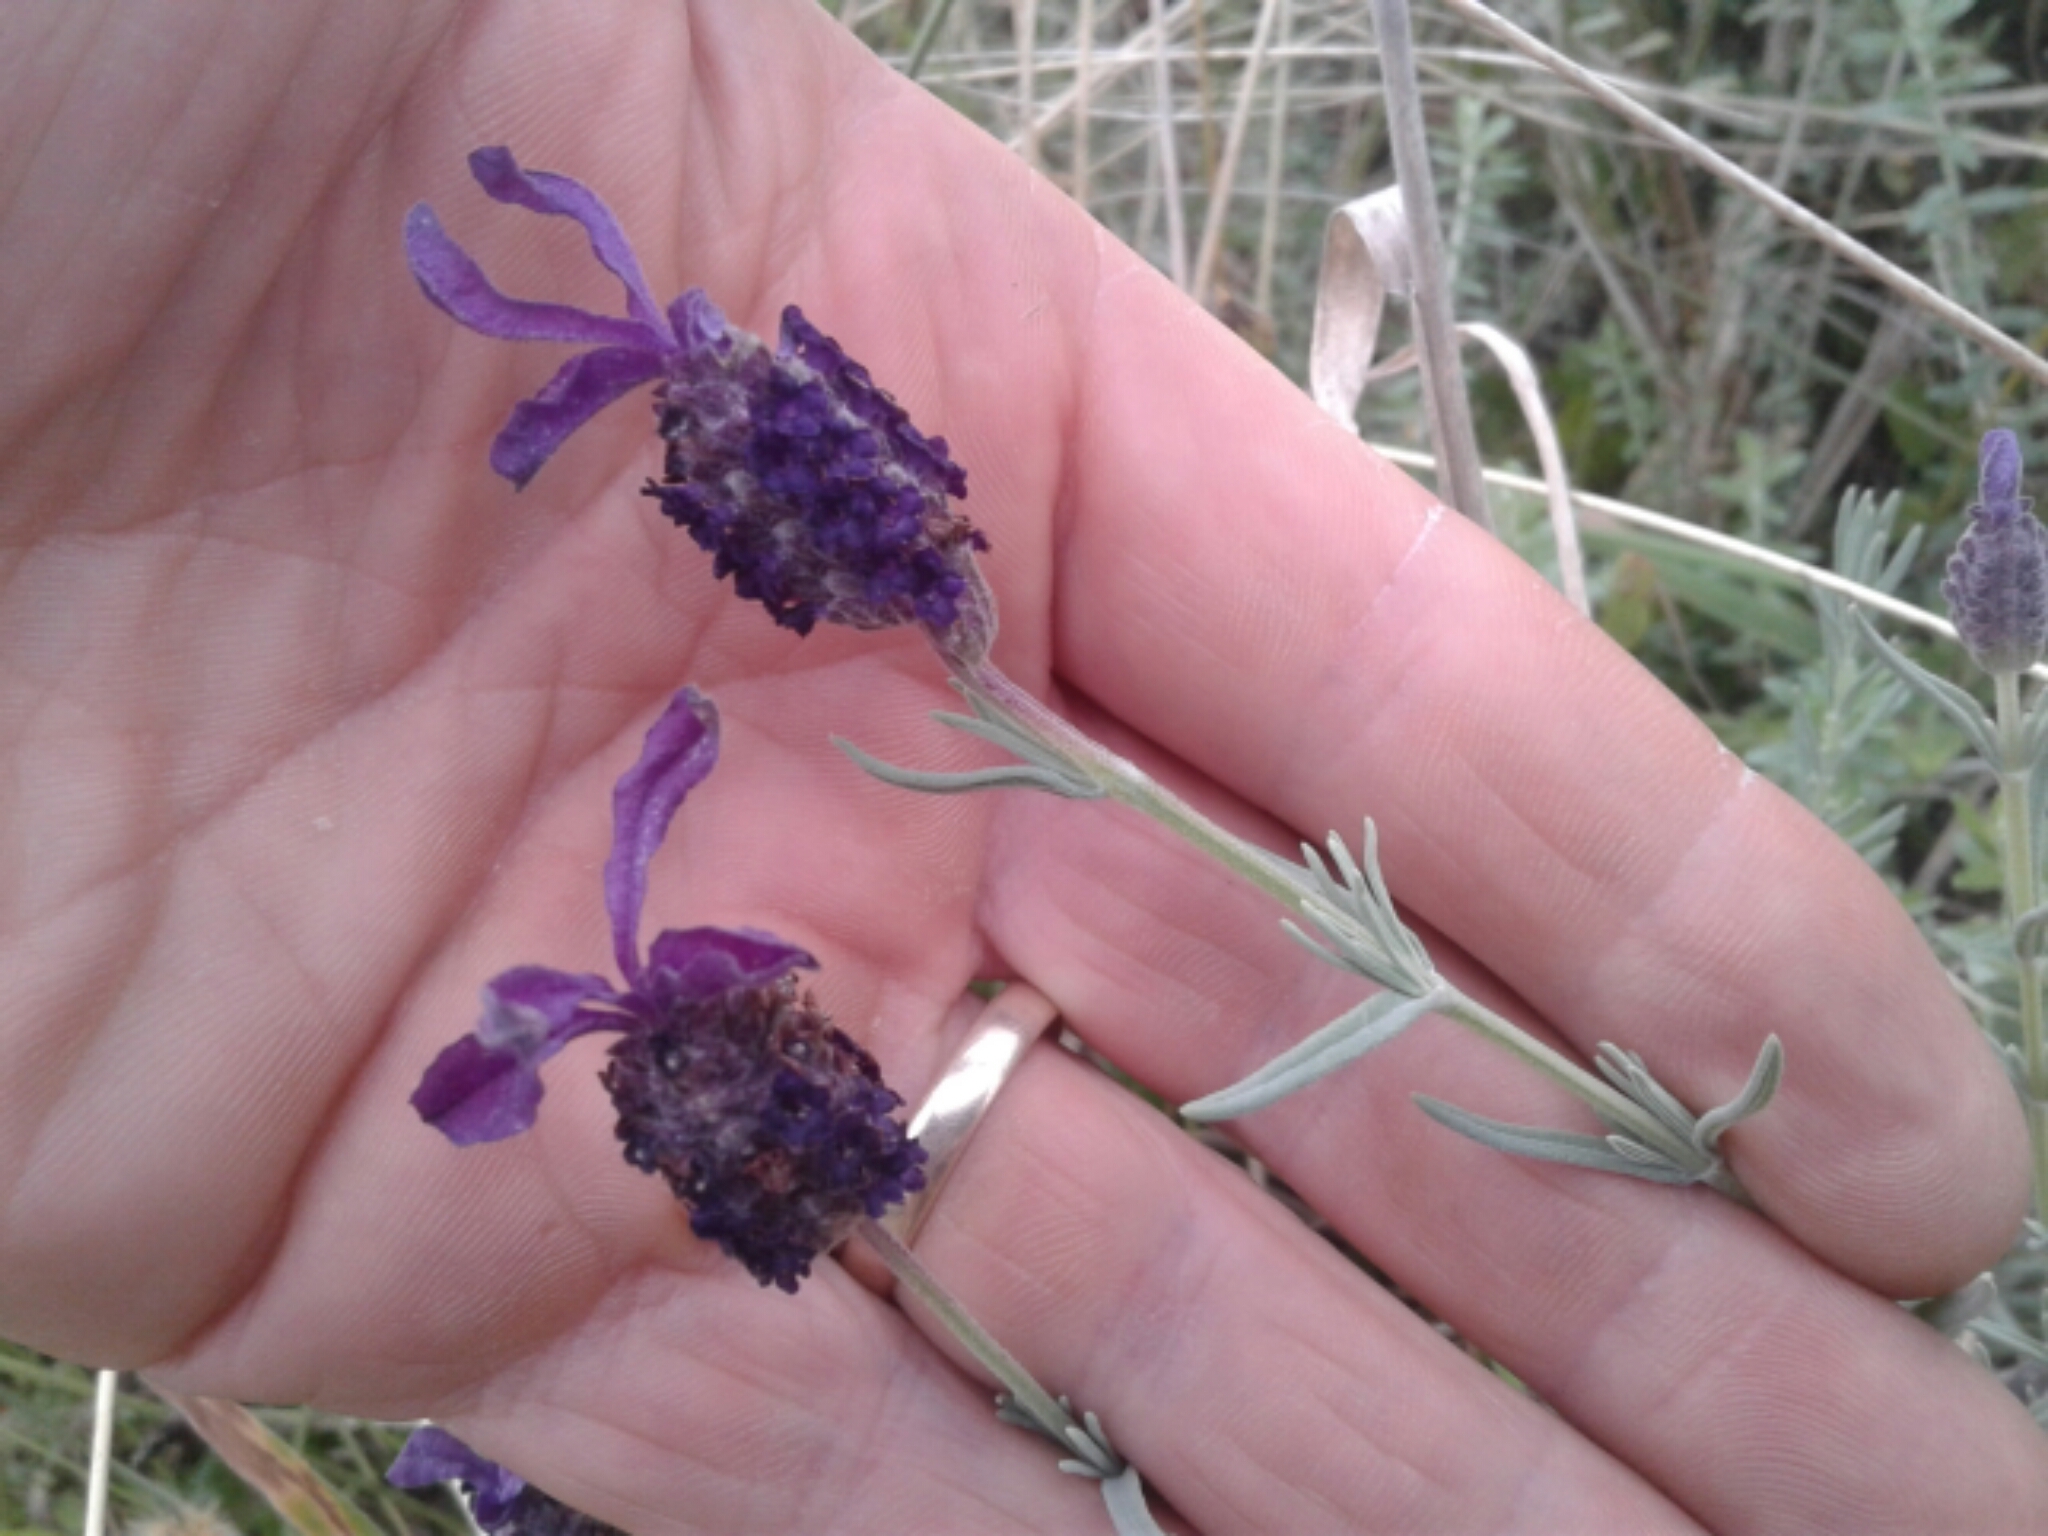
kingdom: Plantae
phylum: Tracheophyta
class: Magnoliopsida
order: Lamiales
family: Lamiaceae
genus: Lavandula
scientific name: Lavandula stoechas
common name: French lavender
